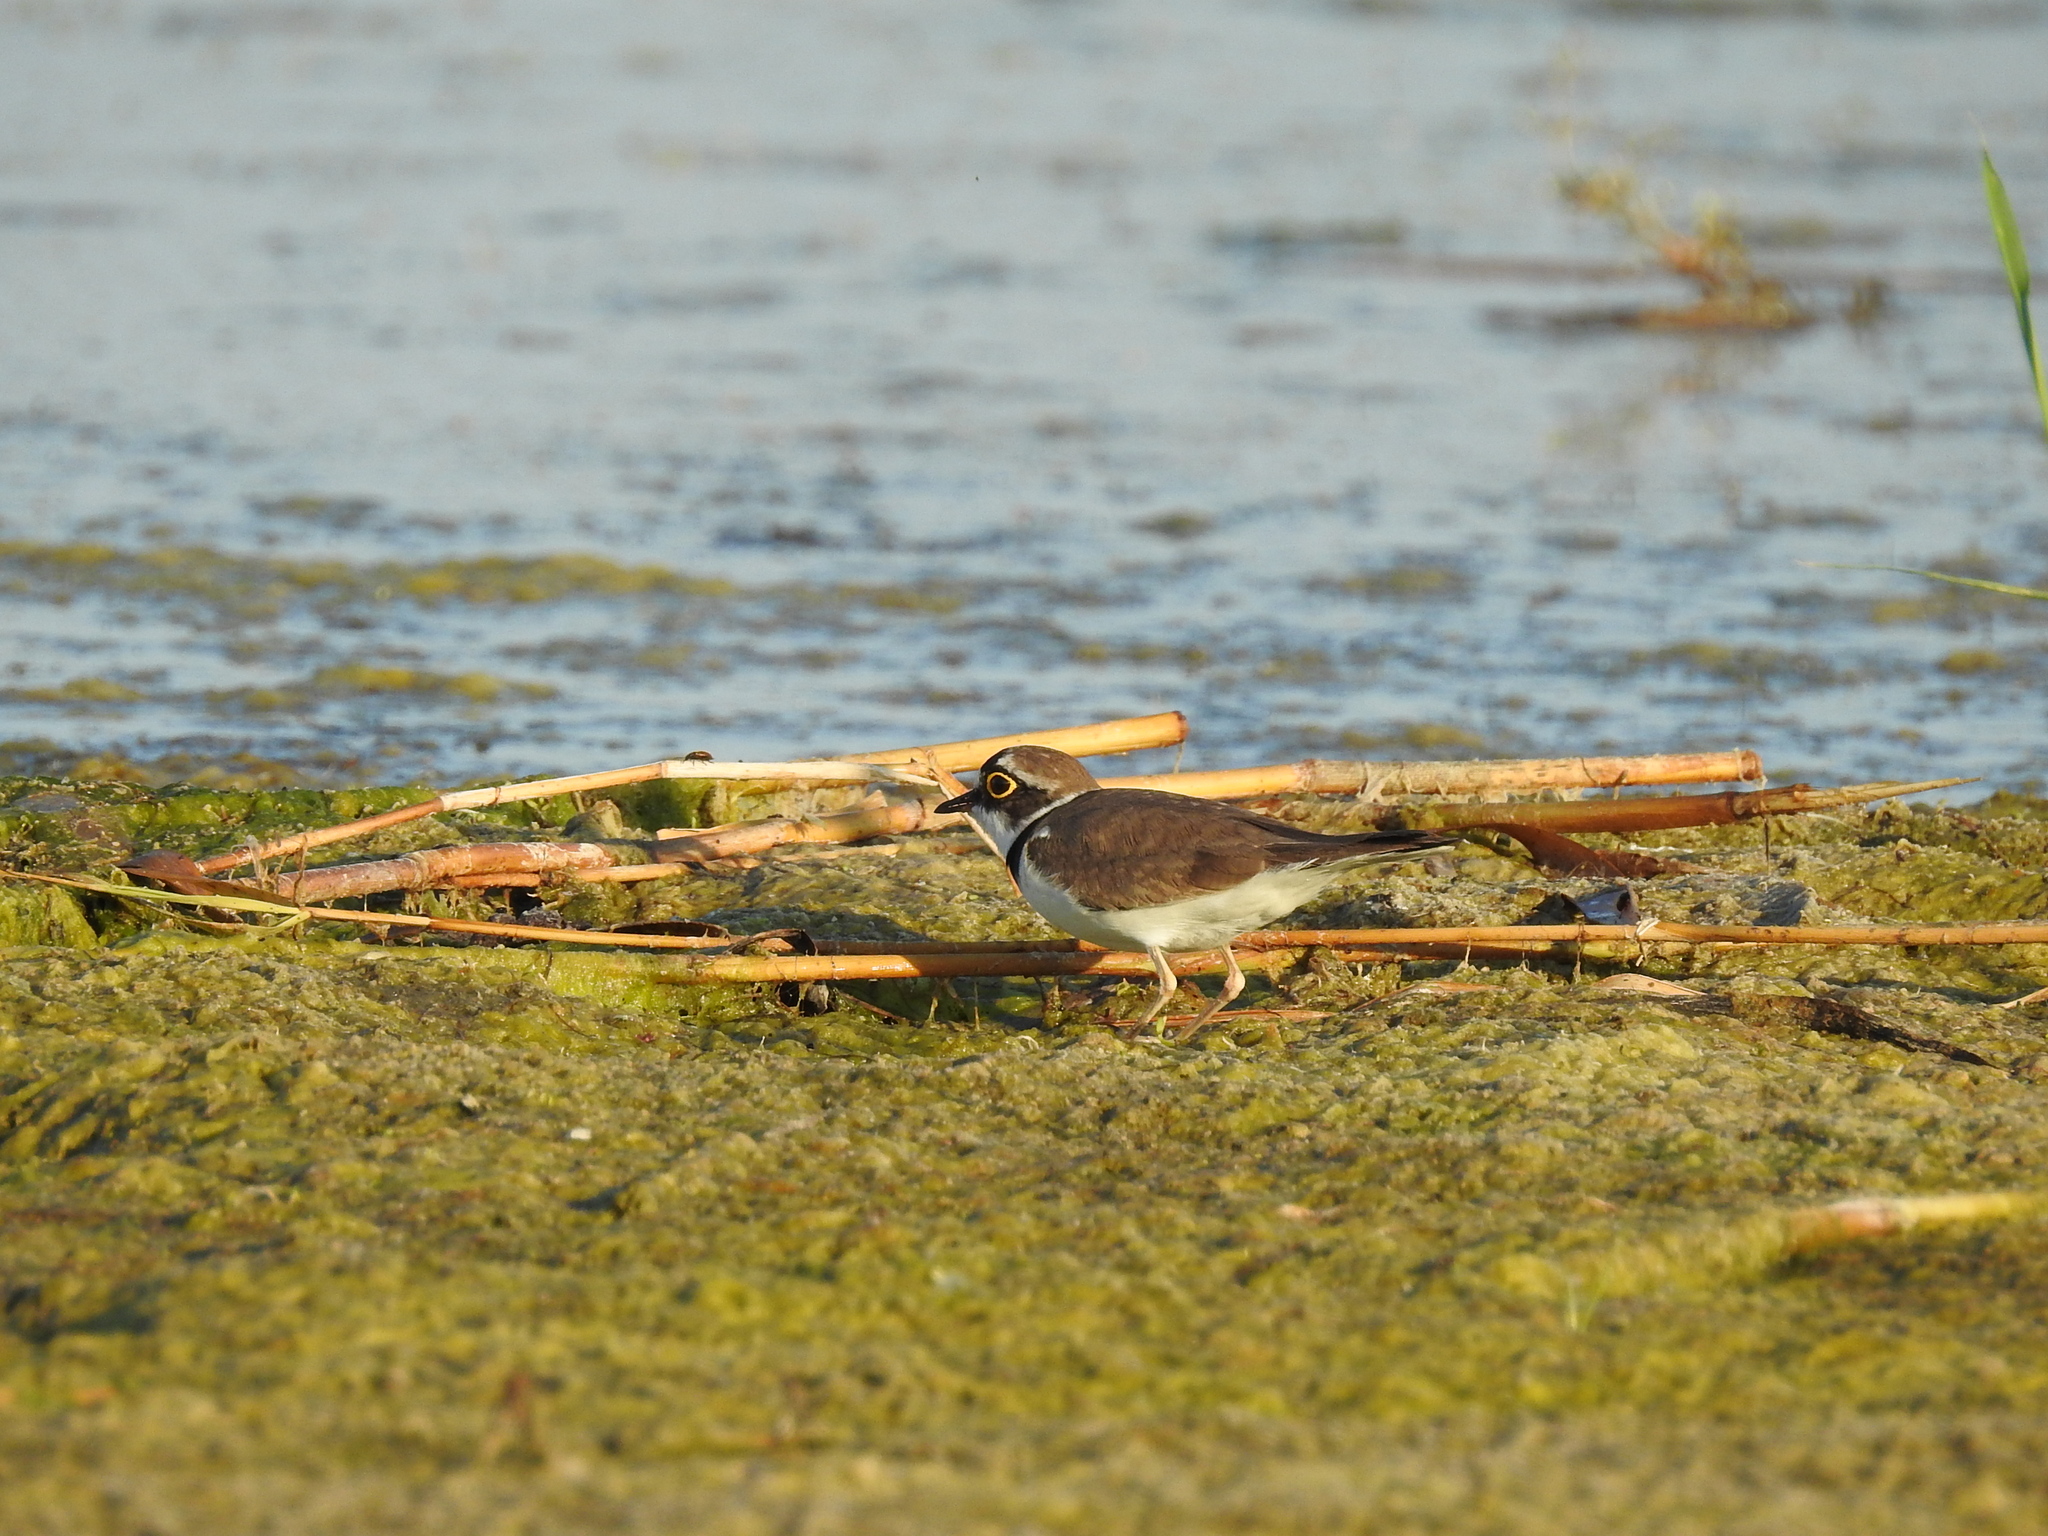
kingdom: Animalia
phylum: Chordata
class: Aves
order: Charadriiformes
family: Charadriidae
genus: Charadrius
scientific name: Charadrius dubius
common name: Little ringed plover
